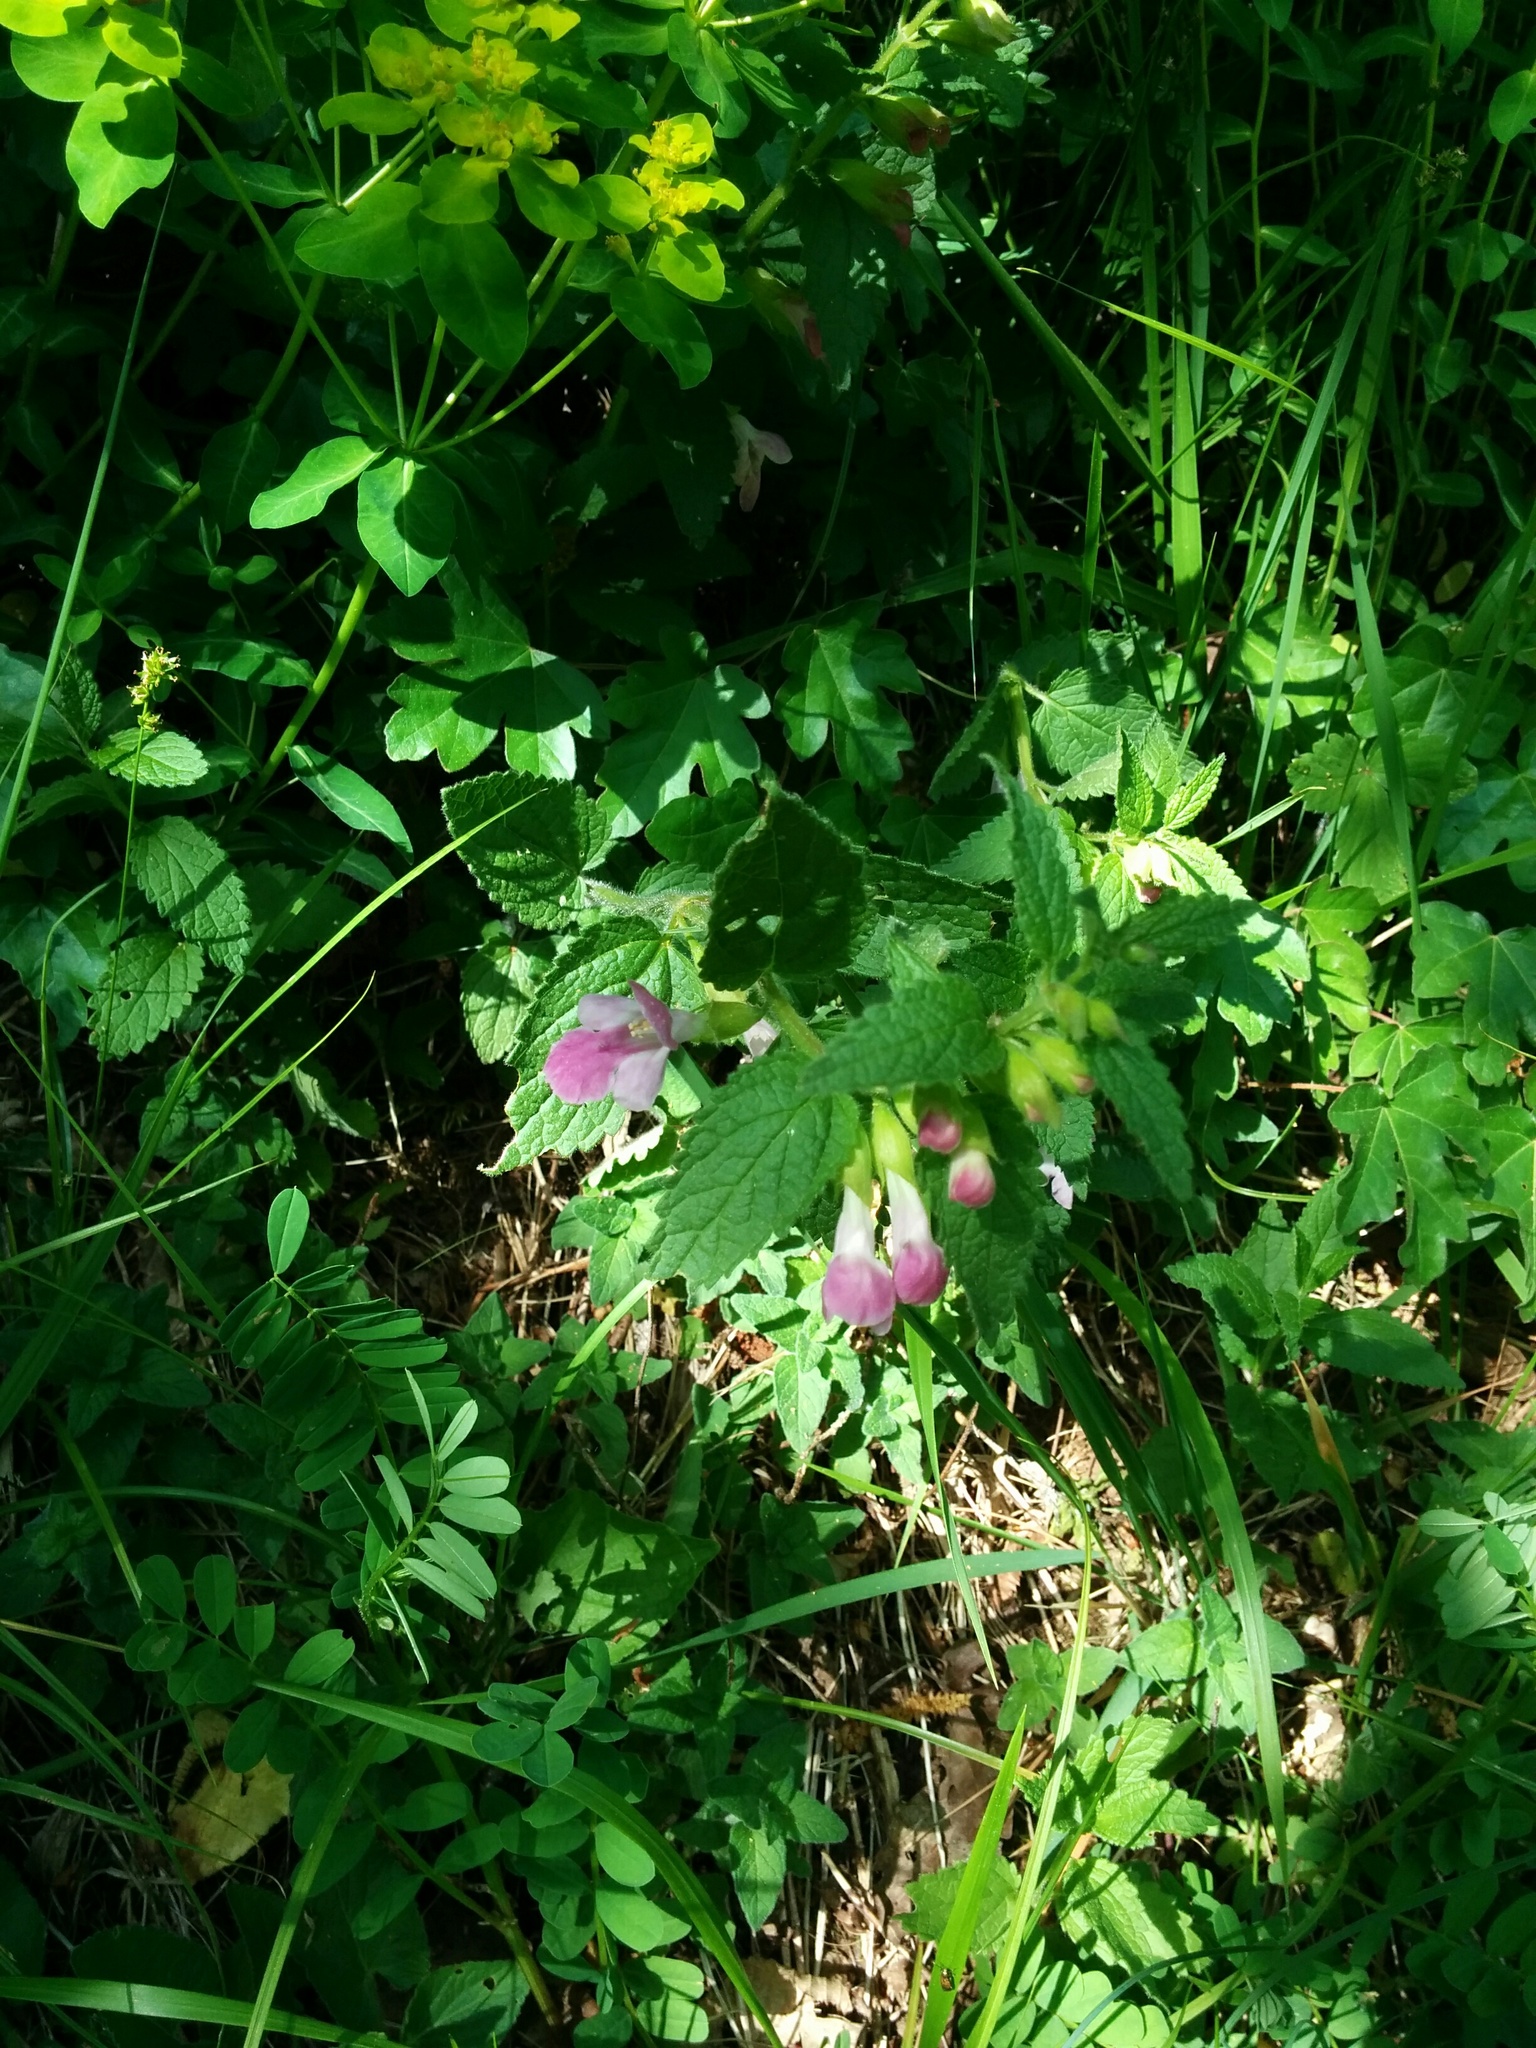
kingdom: Plantae
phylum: Tracheophyta
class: Magnoliopsida
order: Lamiales
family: Lamiaceae
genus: Melittis
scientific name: Melittis melissophyllum
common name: Bastard balm
